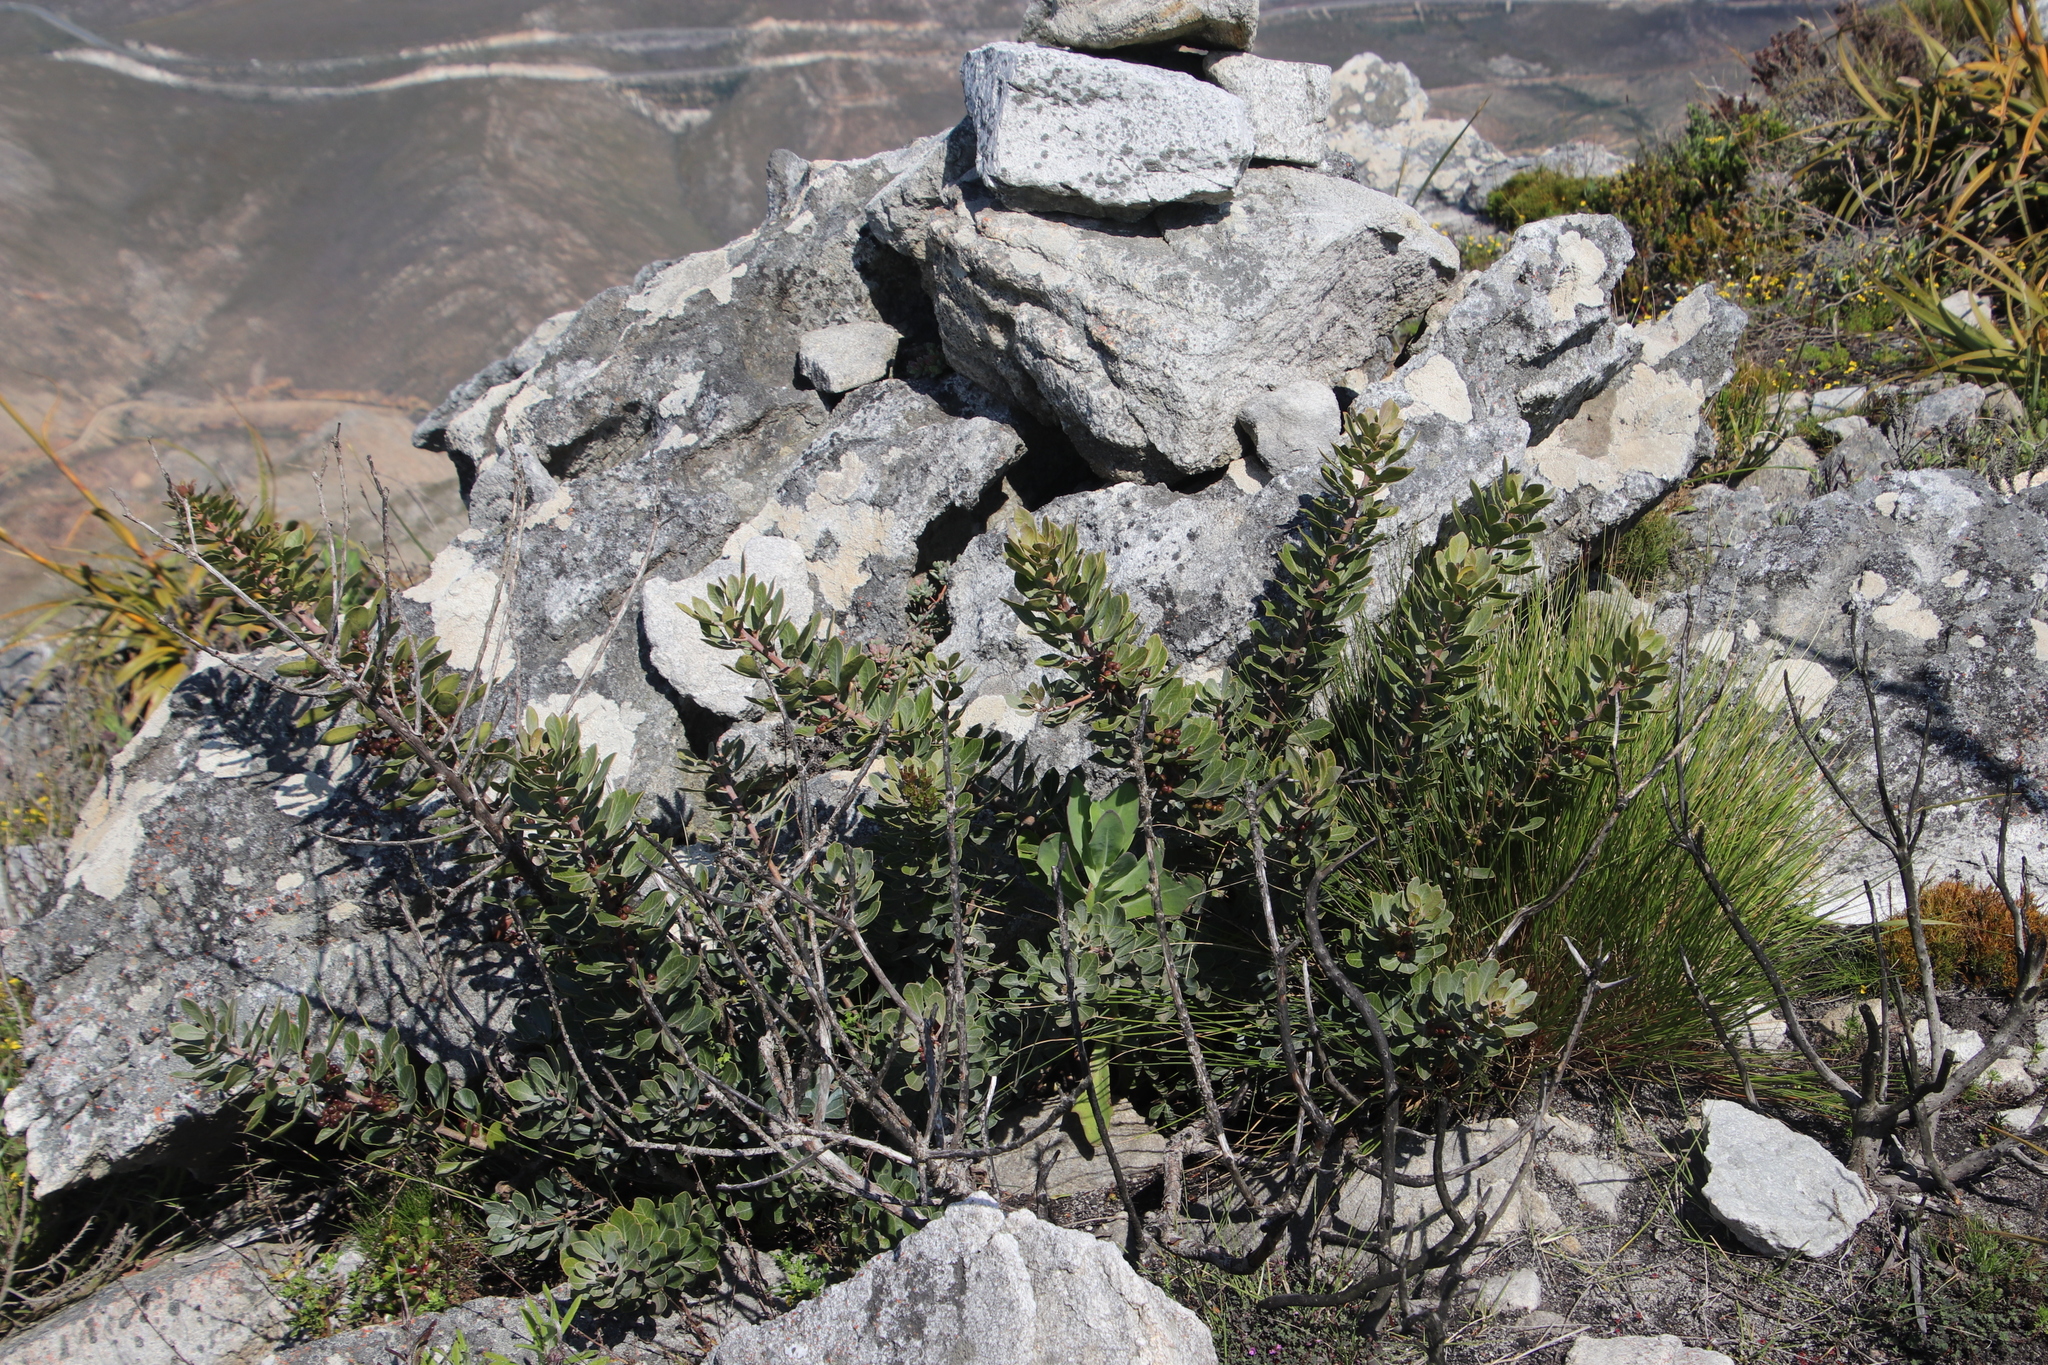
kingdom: Plantae
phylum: Tracheophyta
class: Magnoliopsida
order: Sapindales
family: Anacardiaceae
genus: Searsia
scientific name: Searsia scytophylla
